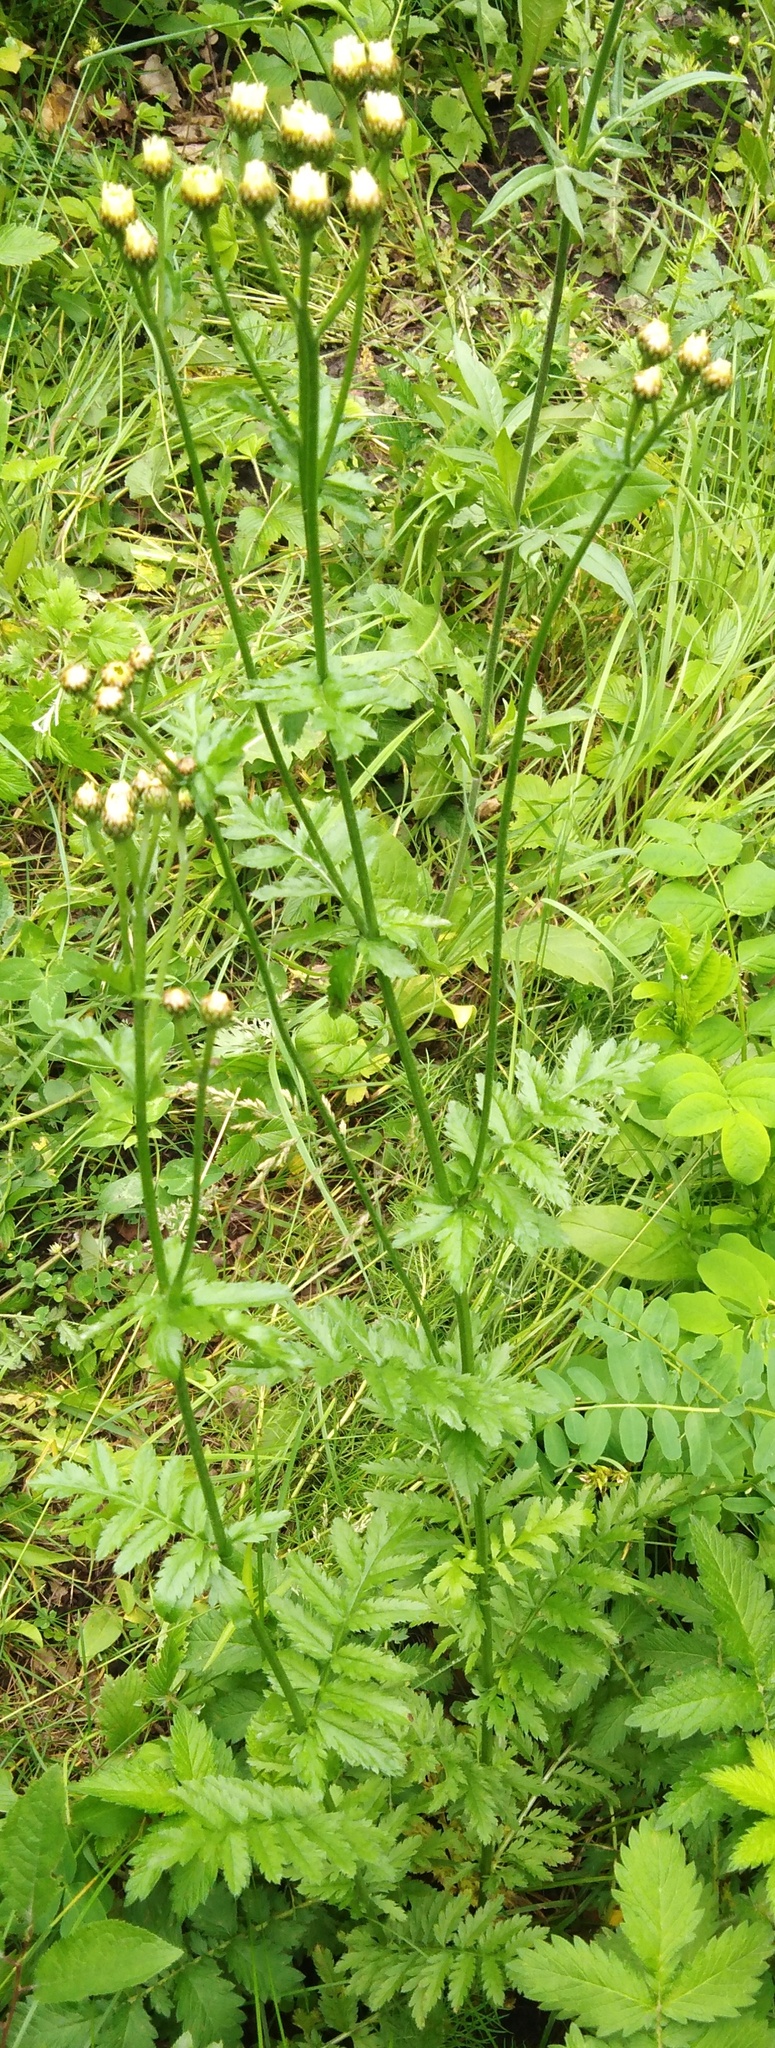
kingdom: Plantae
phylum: Tracheophyta
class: Magnoliopsida
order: Asterales
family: Asteraceae
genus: Tanacetum
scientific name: Tanacetum corymbosum
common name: Scentless feverfew
